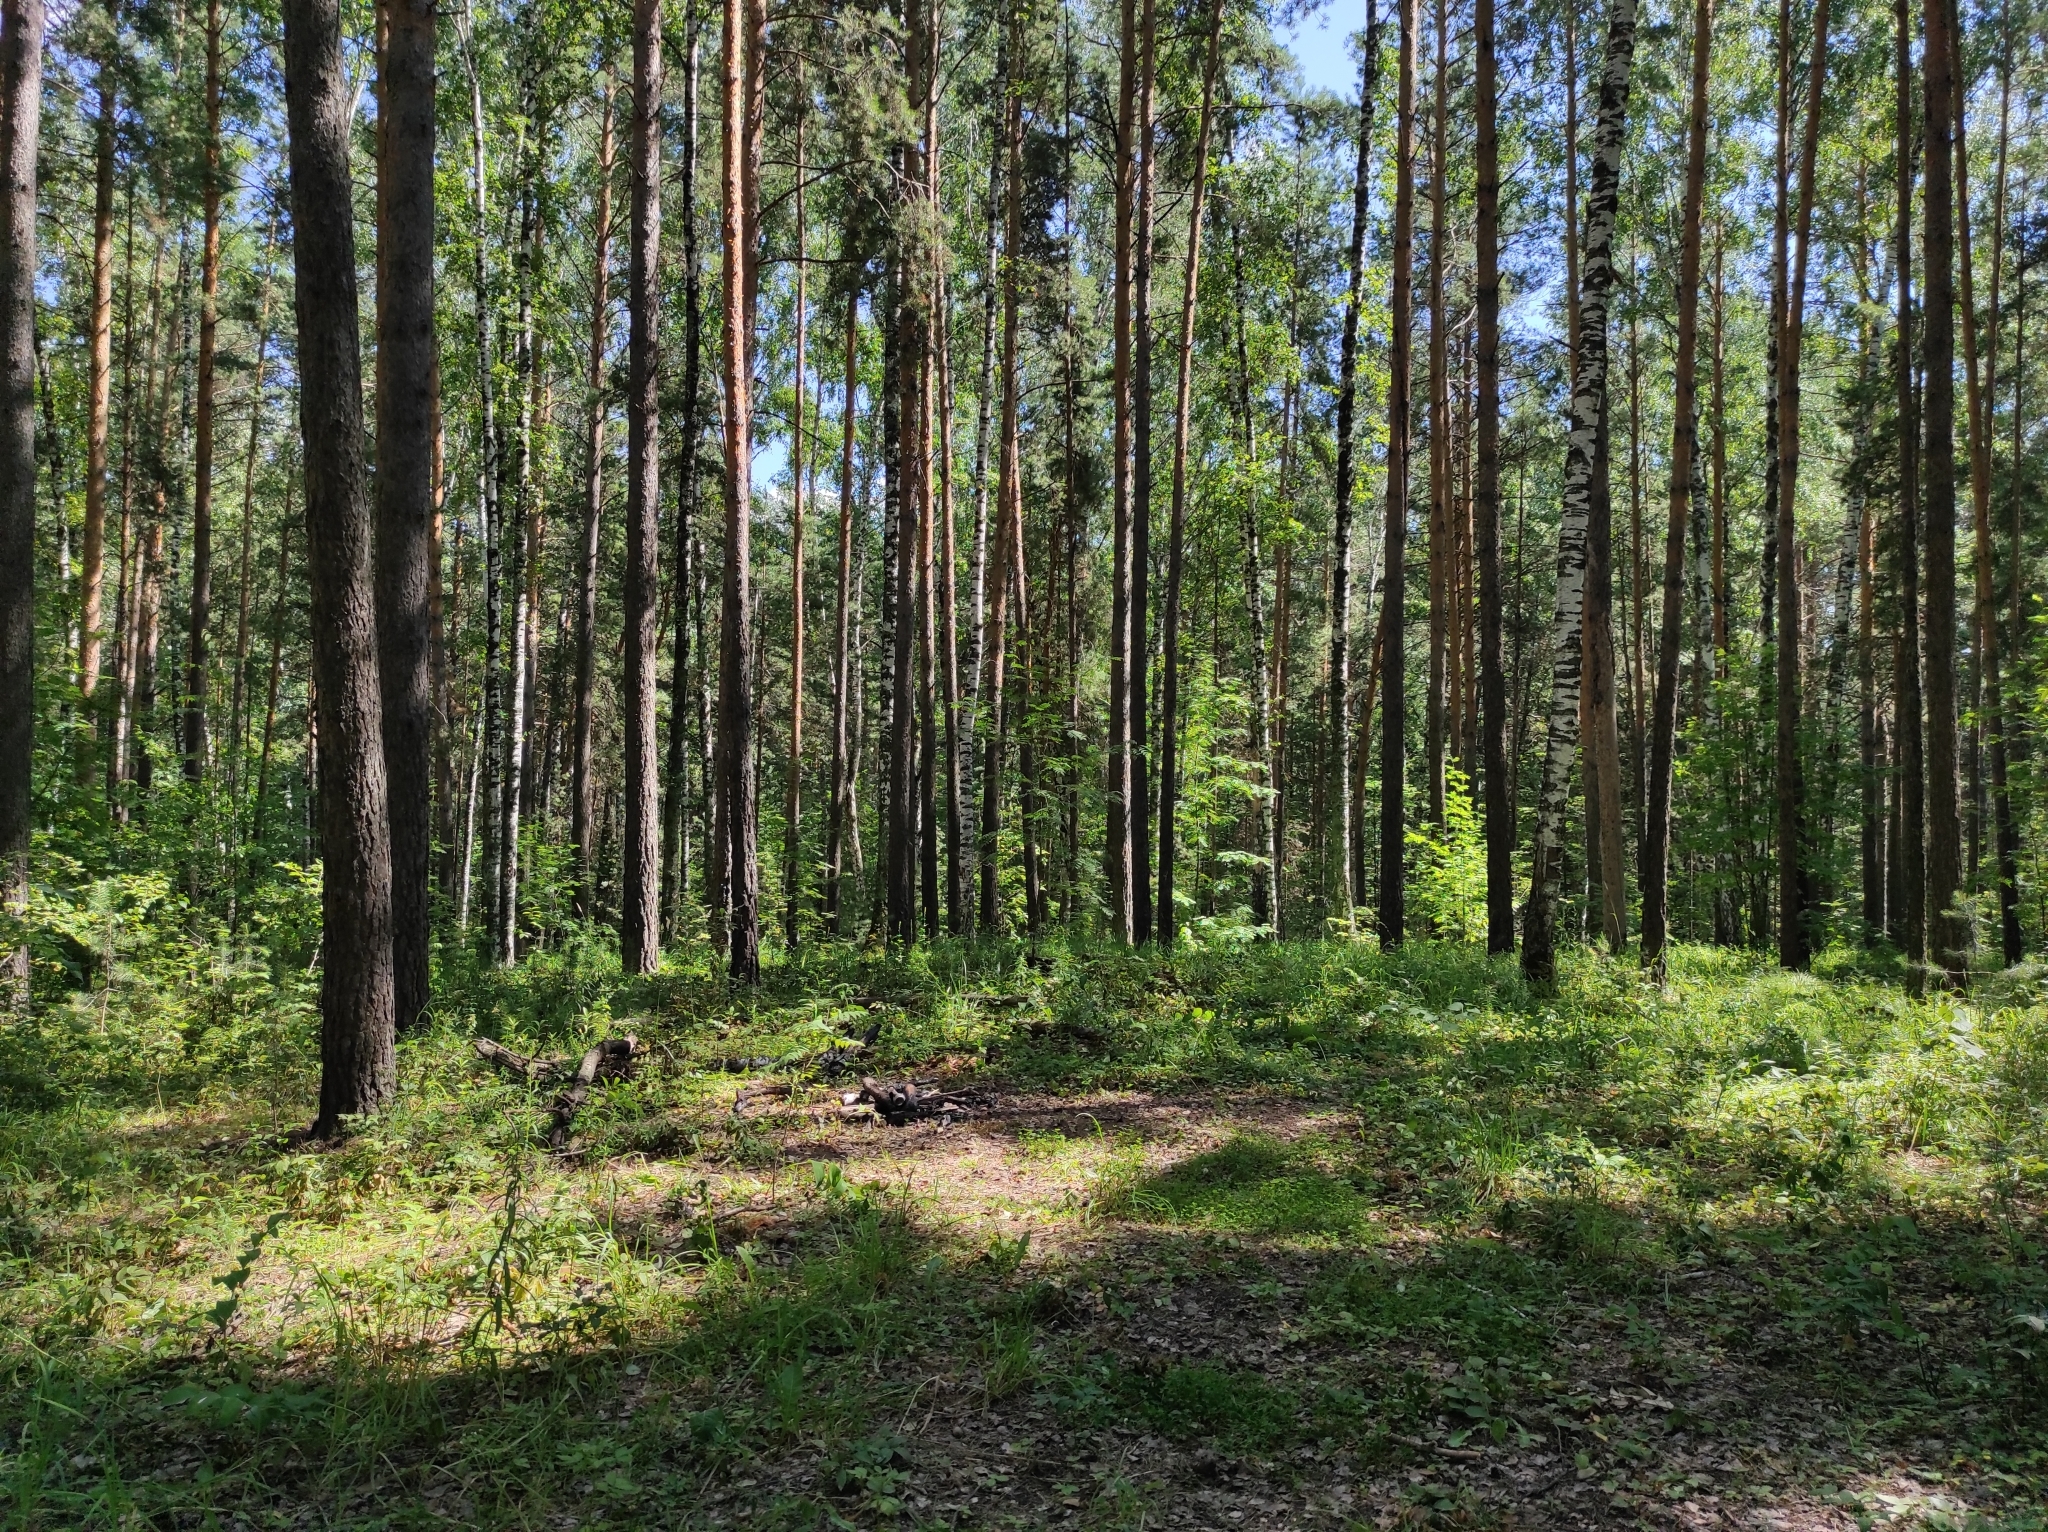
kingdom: Plantae
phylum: Tracheophyta
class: Pinopsida
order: Pinales
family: Pinaceae
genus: Pinus
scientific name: Pinus sylvestris
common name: Scots pine
